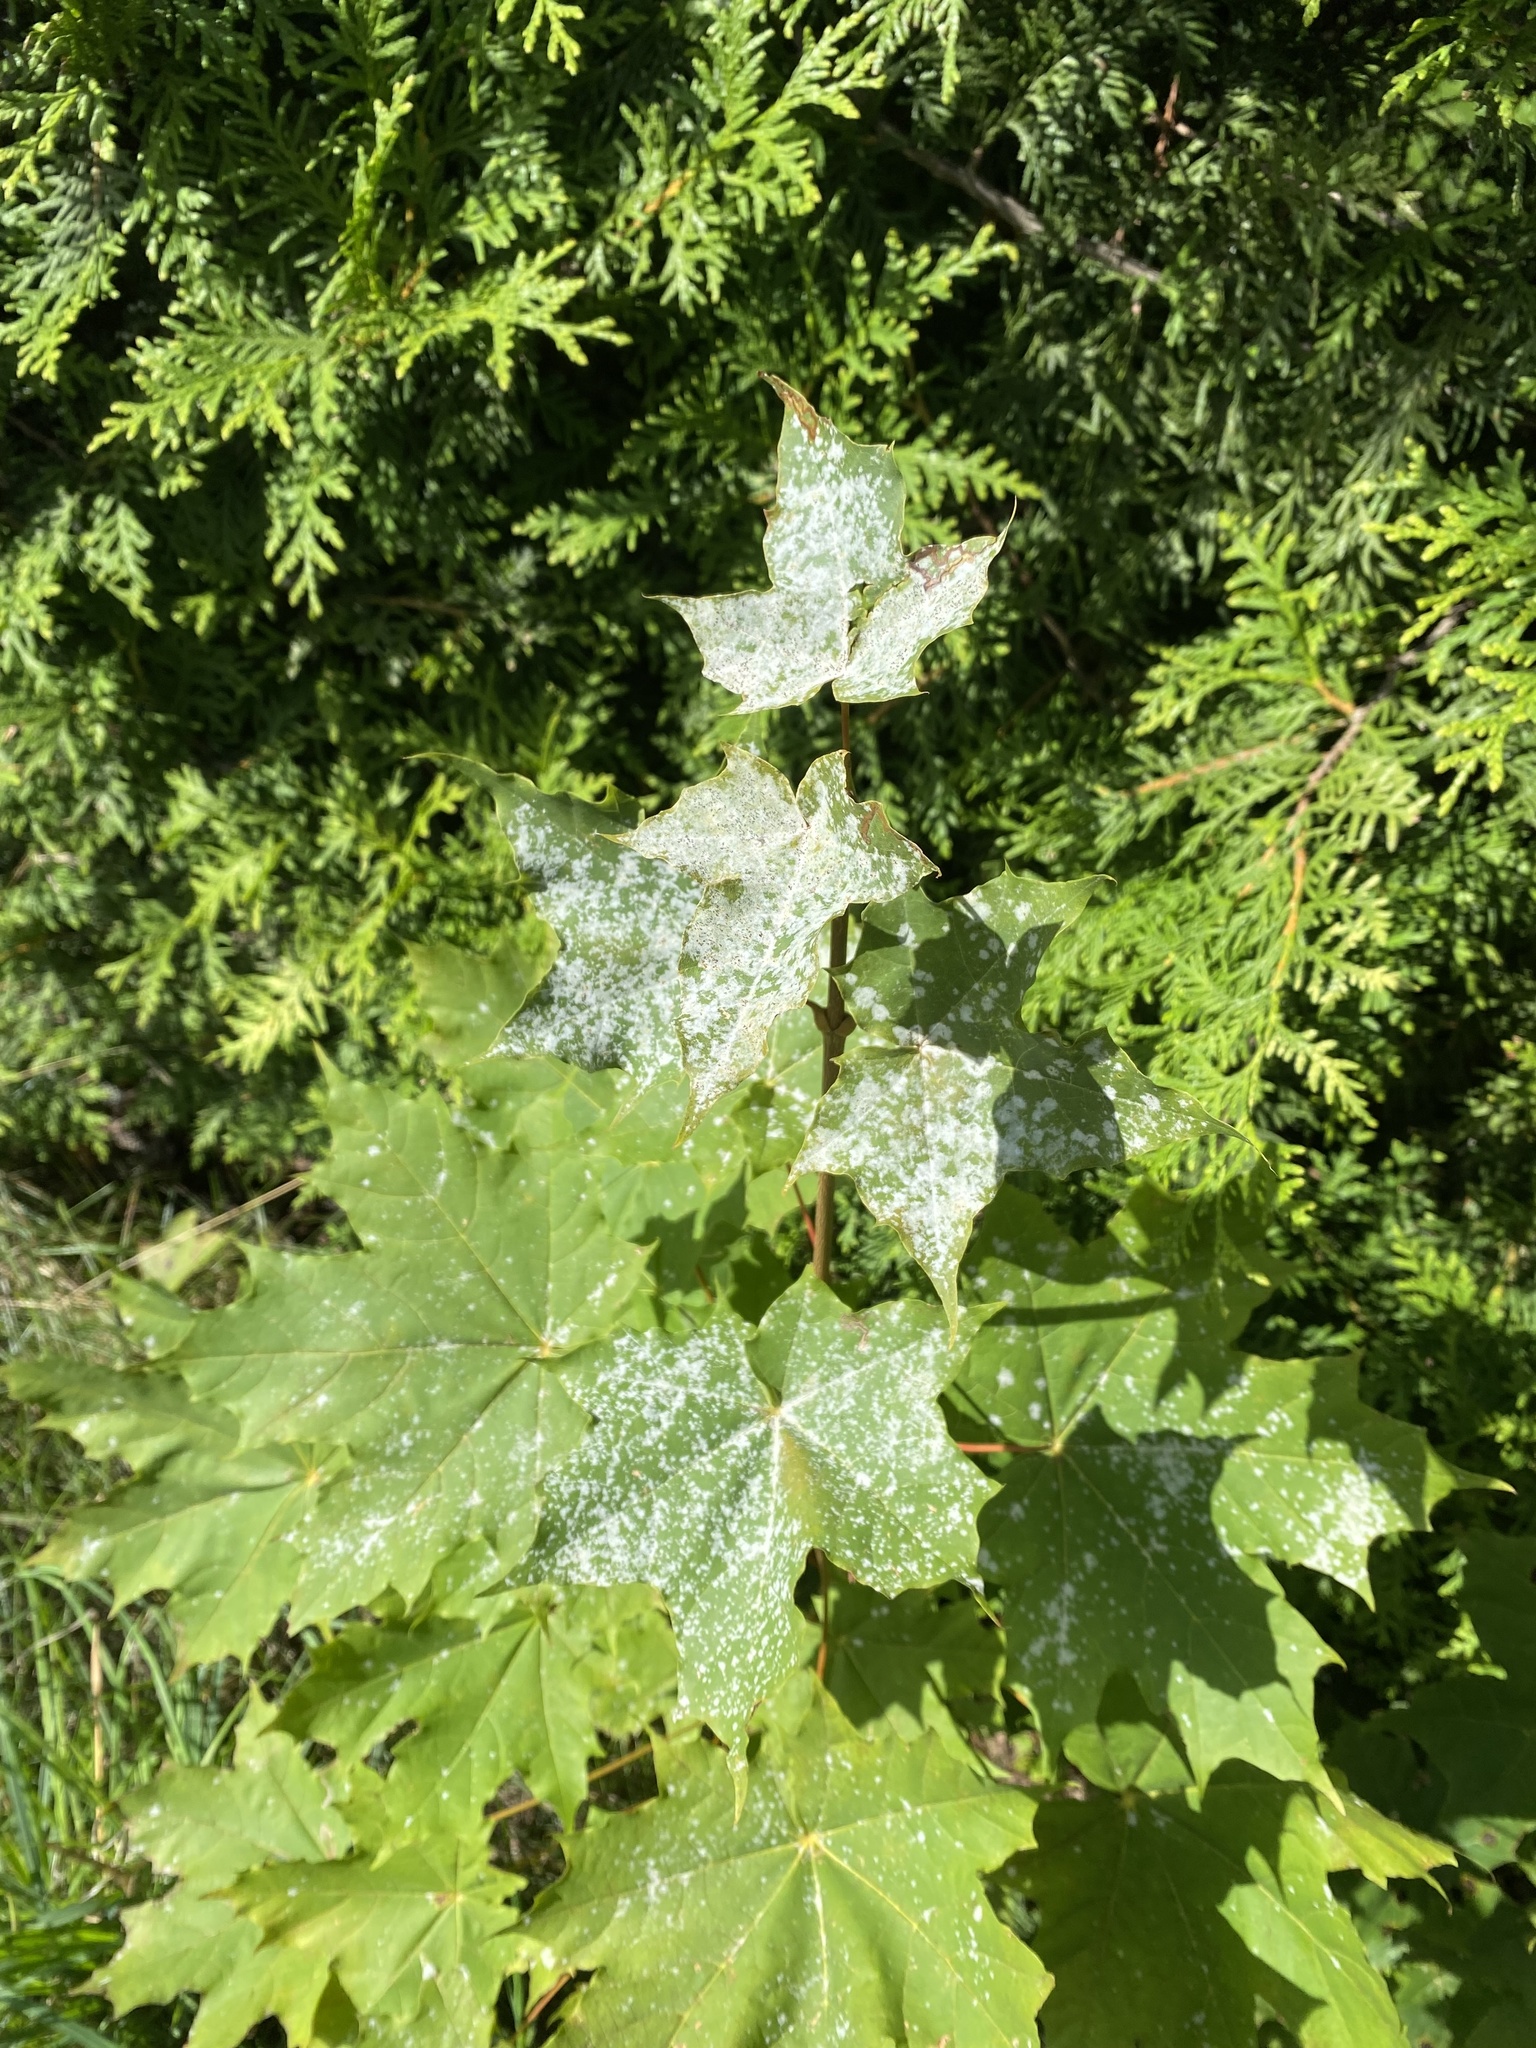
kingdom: Fungi
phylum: Ascomycota
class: Leotiomycetes
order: Helotiales
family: Erysiphaceae
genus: Sawadaea
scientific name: Sawadaea tulasnei
